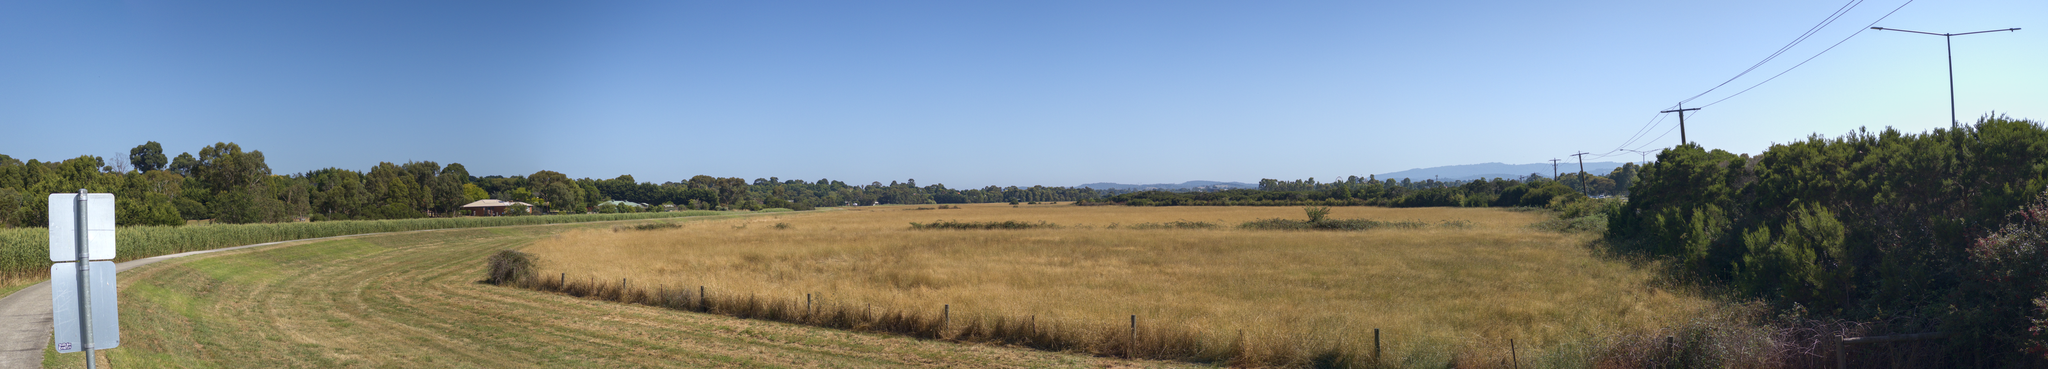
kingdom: Animalia
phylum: Chordata
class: Aves
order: Passeriformes
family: Maluridae
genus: Malurus
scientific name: Malurus cyaneus
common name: Superb fairywren
